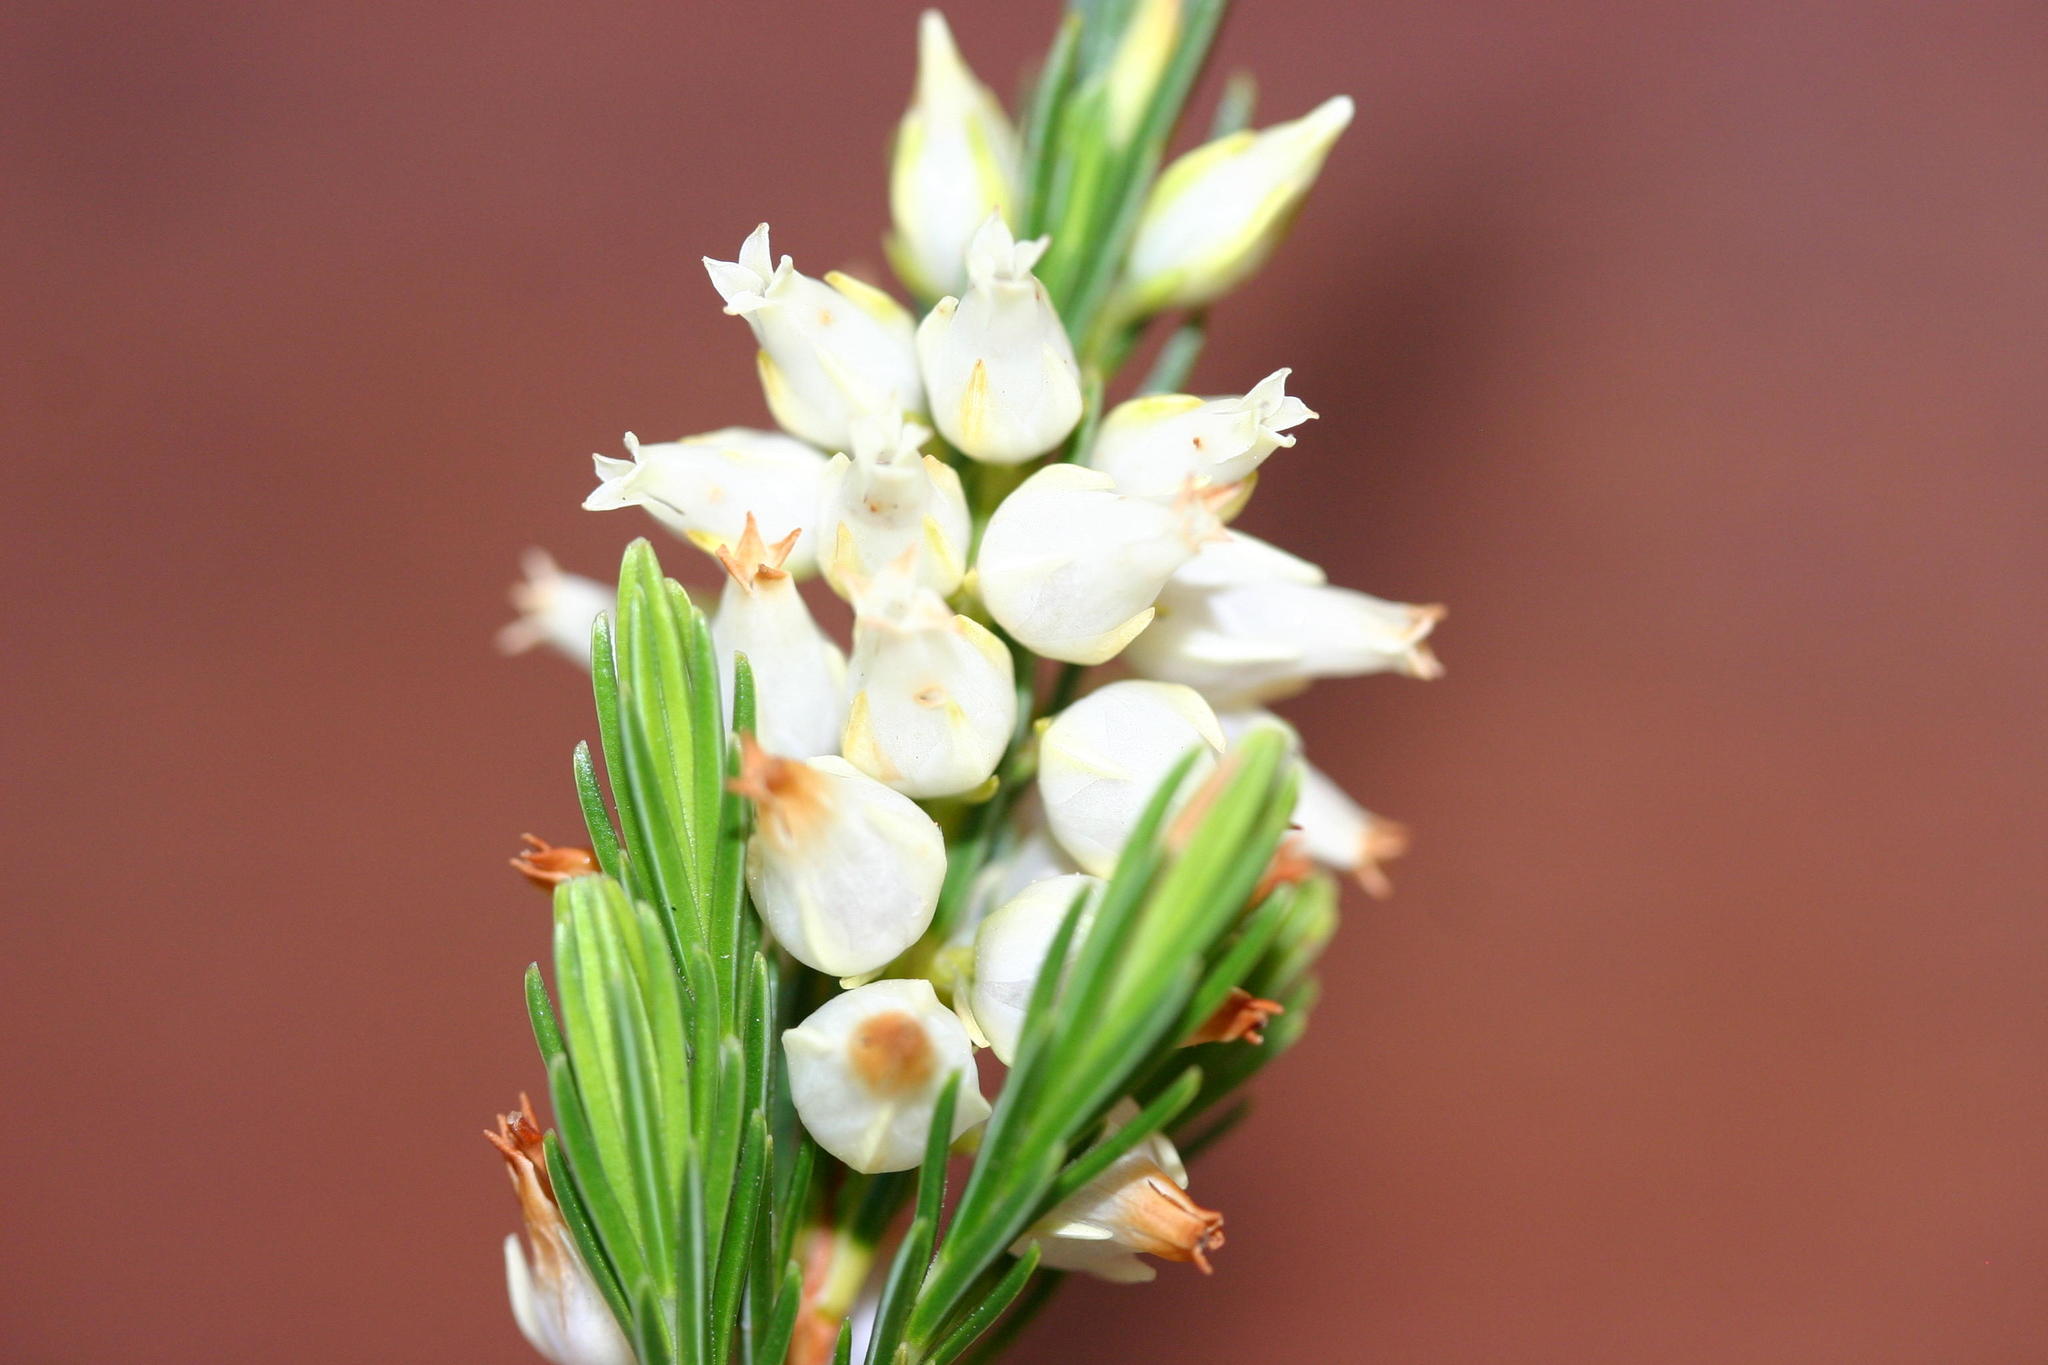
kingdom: Plantae
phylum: Tracheophyta
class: Magnoliopsida
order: Ericales
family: Ericaceae
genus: Erica
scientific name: Erica albens
